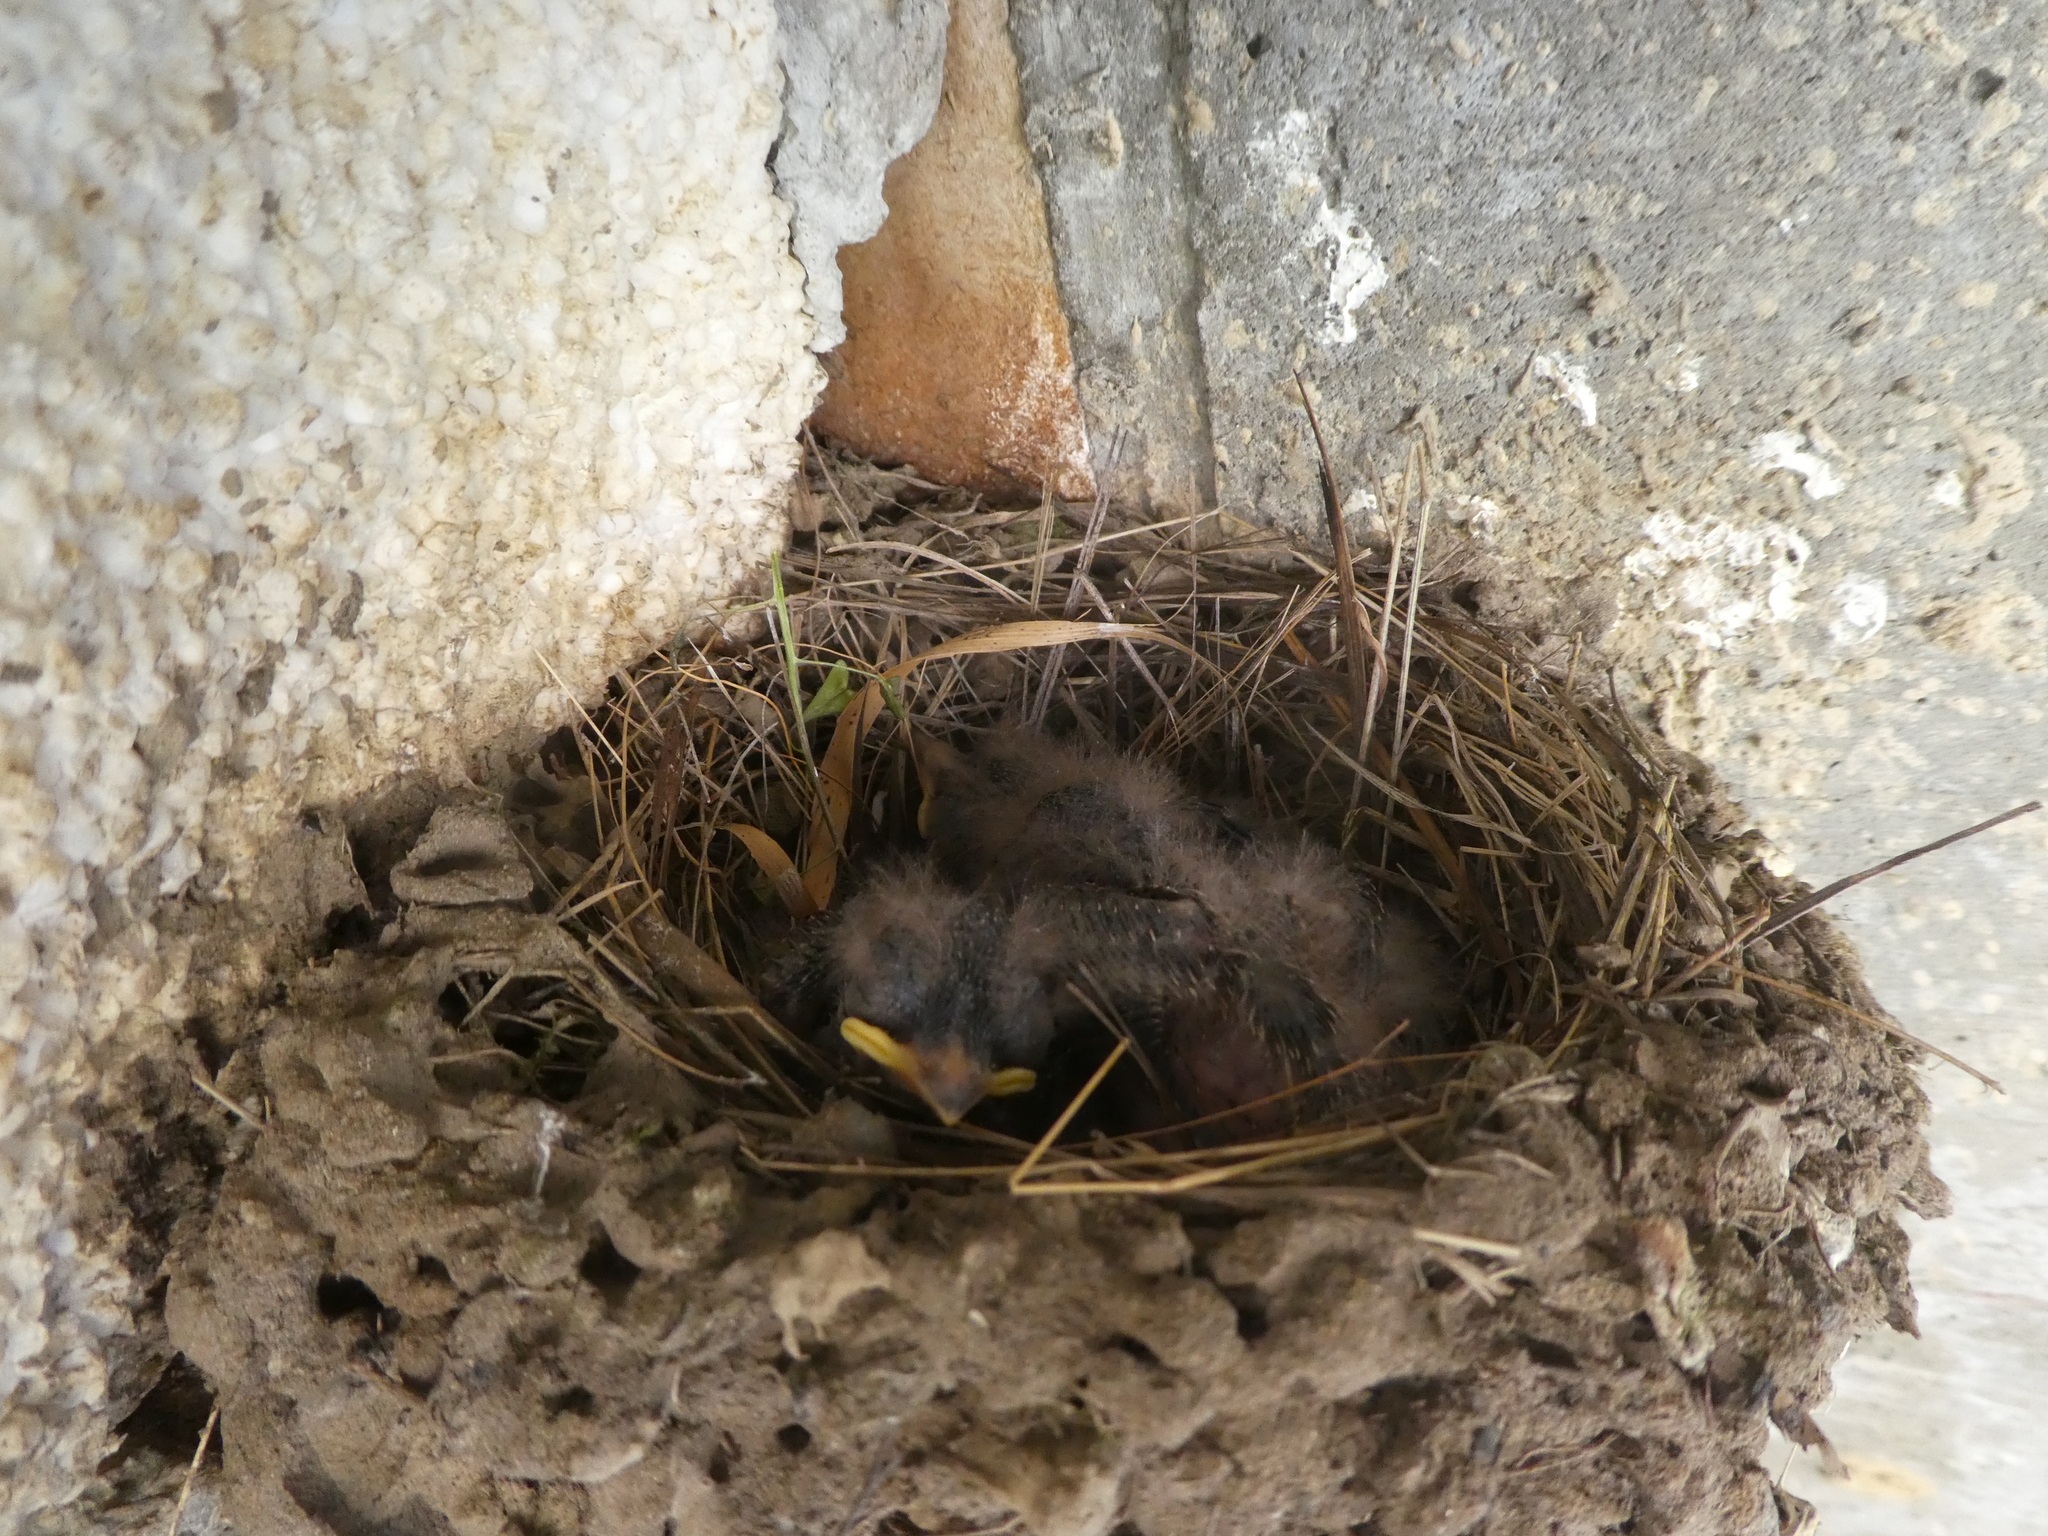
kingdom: Animalia
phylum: Chordata
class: Aves
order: Passeriformes
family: Hirundinidae
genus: Hirundo
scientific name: Hirundo rustica
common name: Barn swallow
